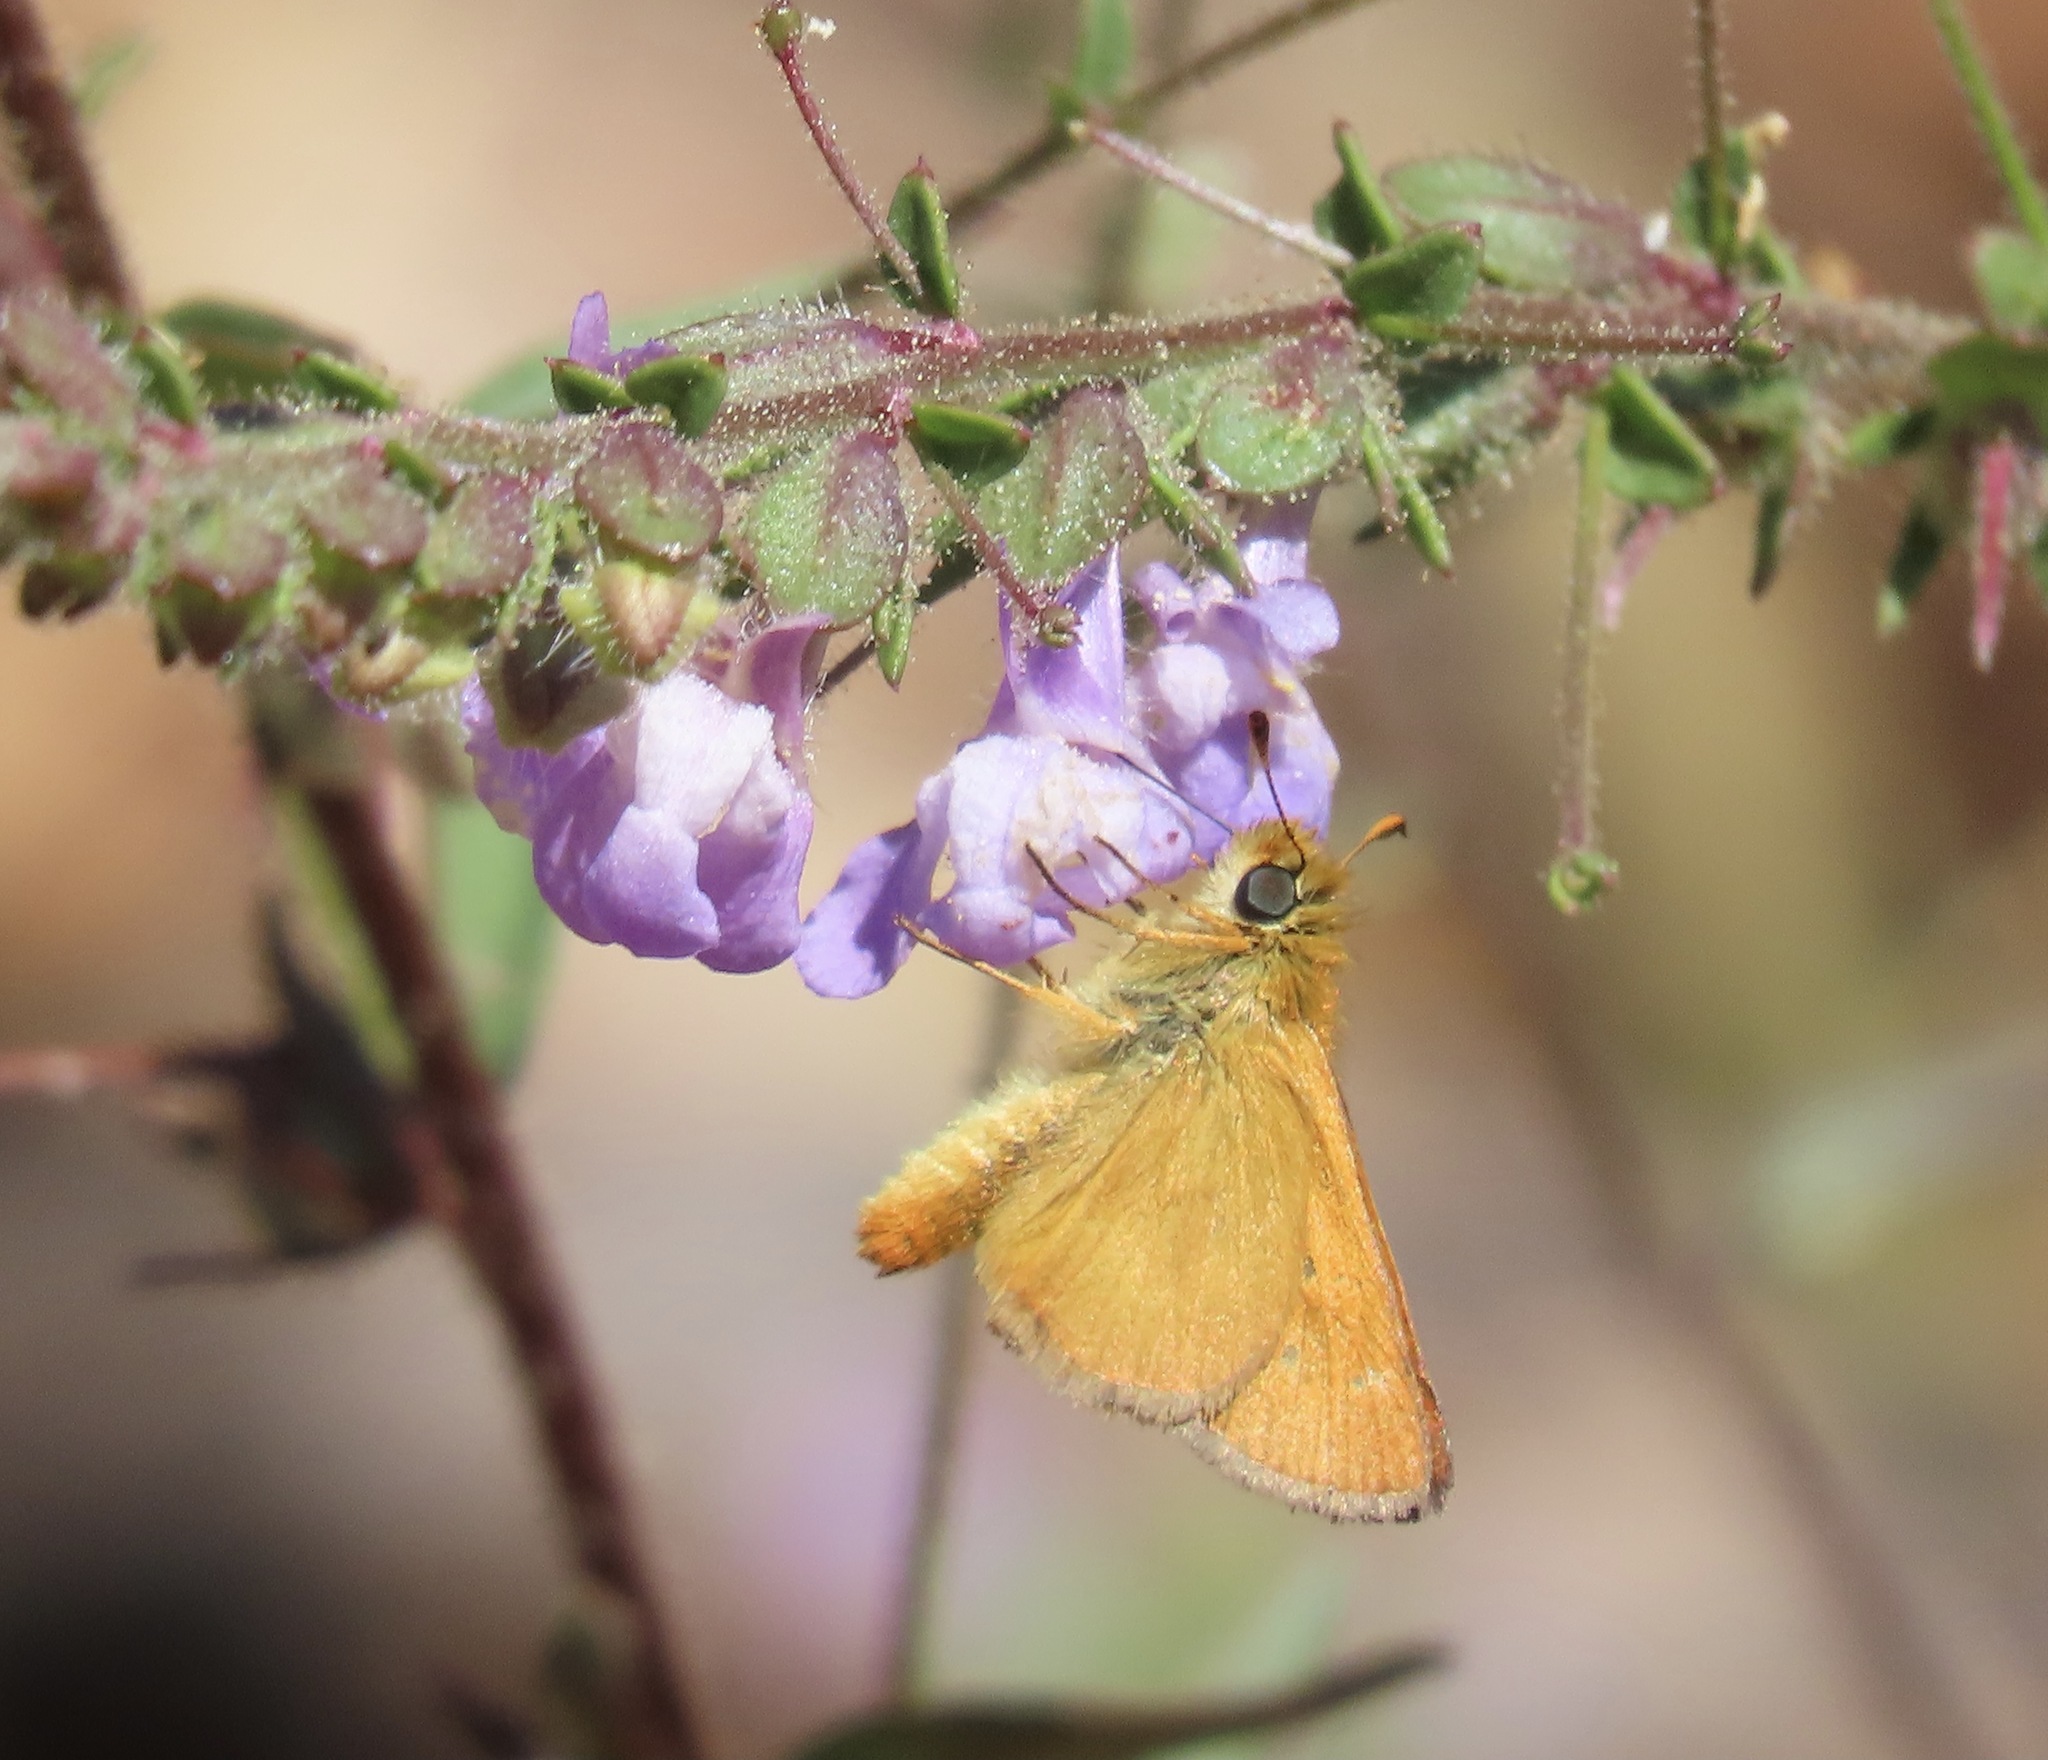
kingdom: Animalia
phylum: Arthropoda
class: Insecta
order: Lepidoptera
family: Hesperiidae
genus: Ochlodes
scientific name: Ochlodes agricola
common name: Rural skipper
